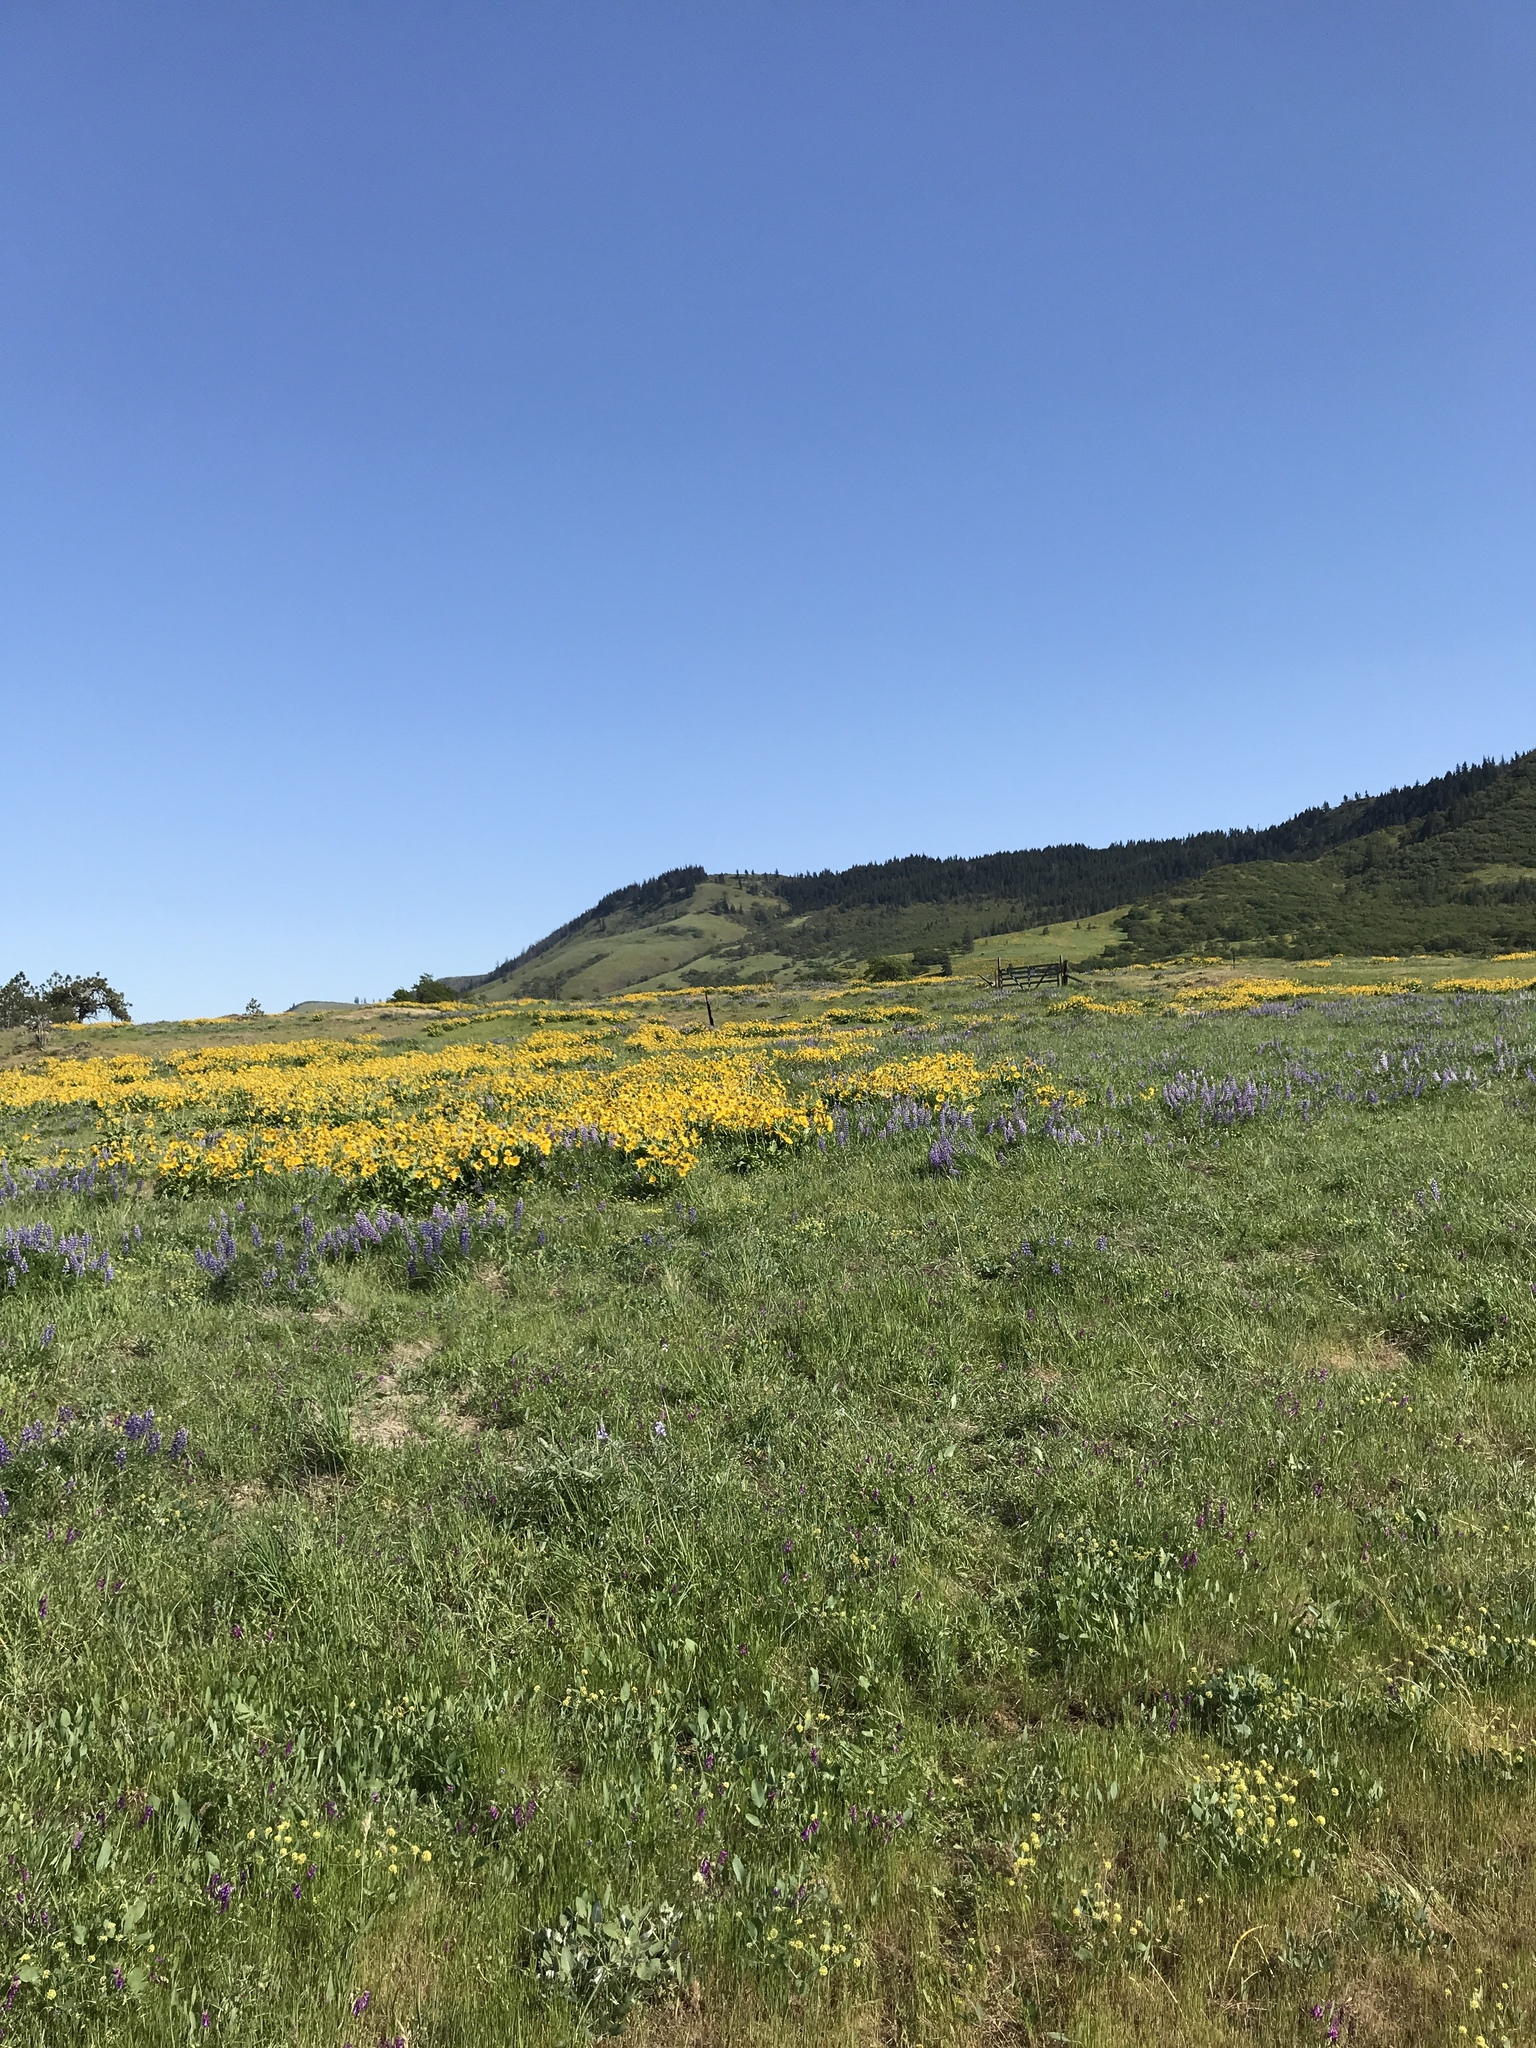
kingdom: Plantae
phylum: Tracheophyta
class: Magnoliopsida
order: Asterales
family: Asteraceae
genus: Balsamorhiza
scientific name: Balsamorhiza careyana
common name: Carey's balsamroot
